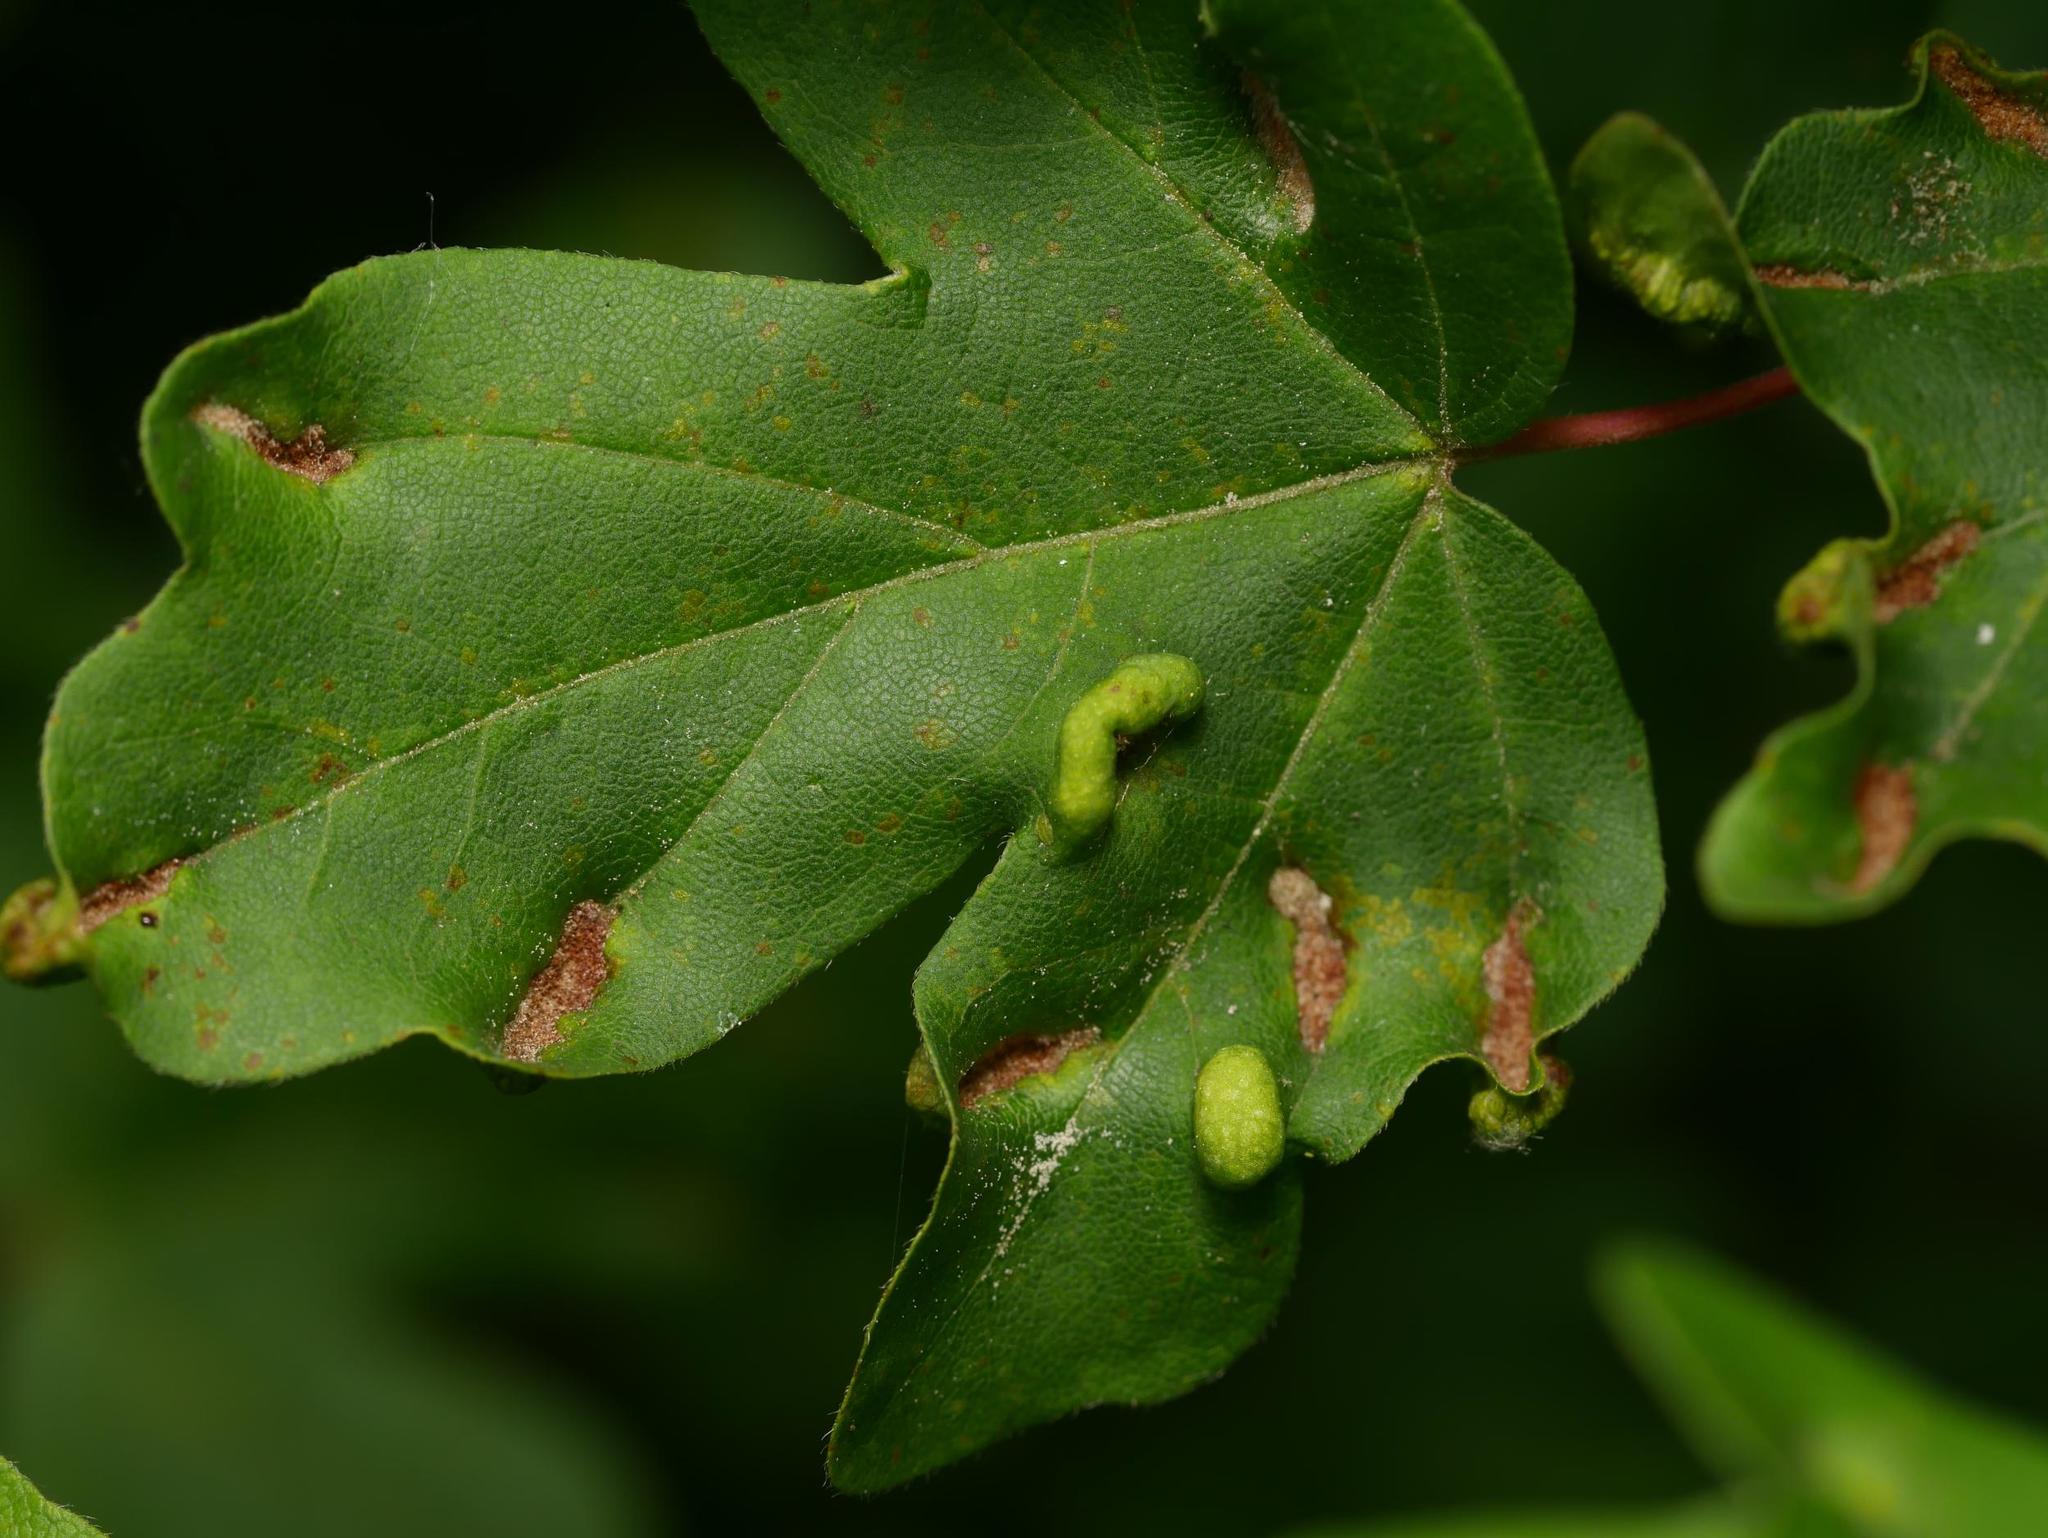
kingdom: Animalia
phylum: Arthropoda
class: Arachnida
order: Trombidiformes
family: Eriophyidae
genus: Aceria
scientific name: Aceria carinifex
